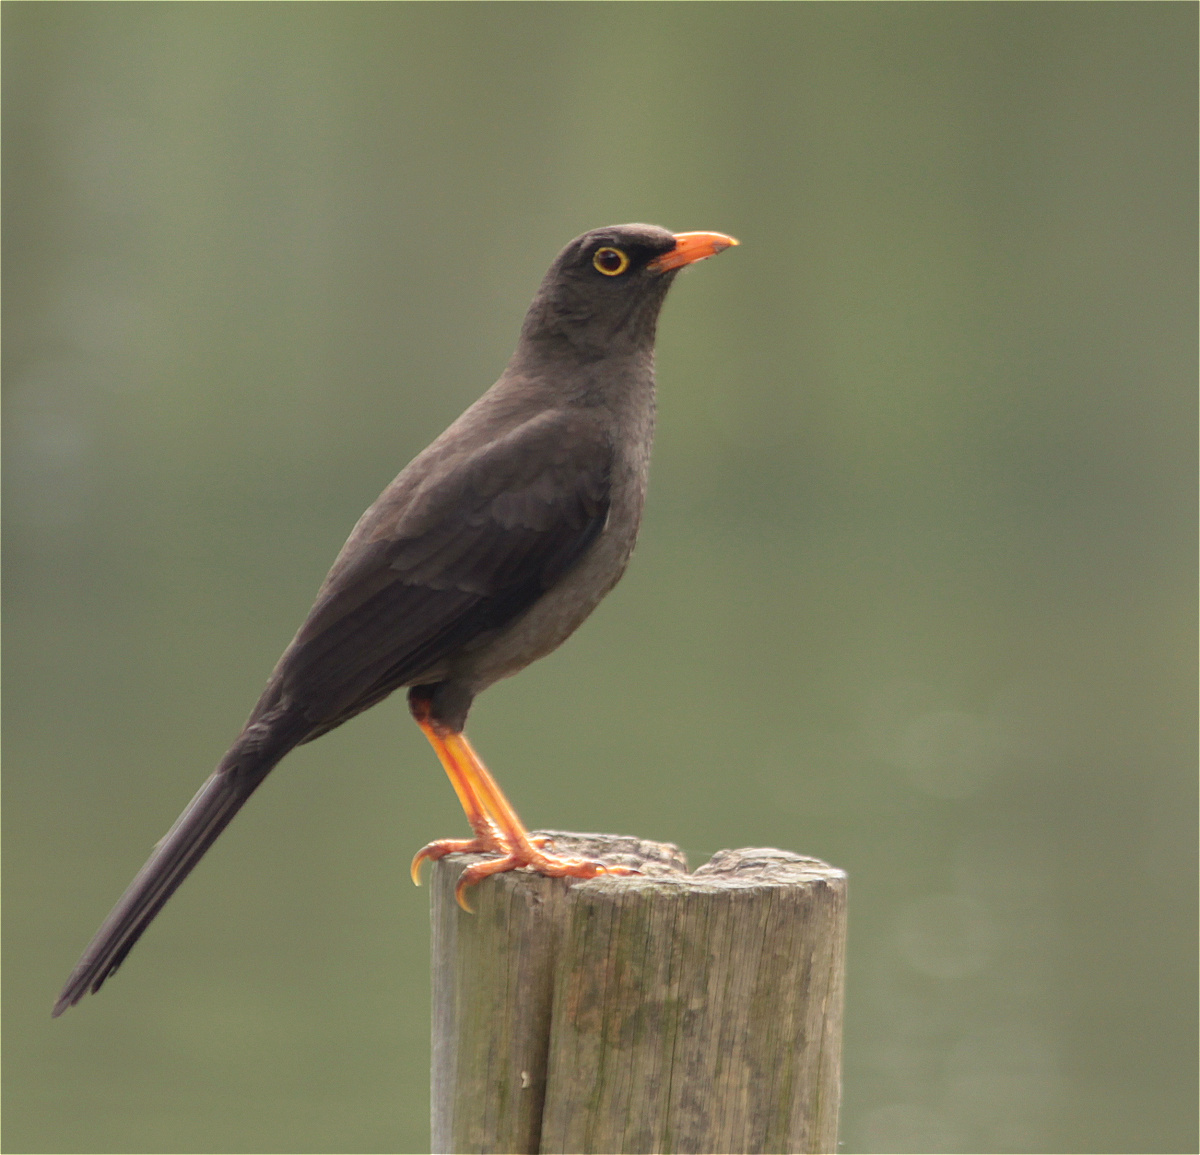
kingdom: Animalia
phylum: Chordata
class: Aves
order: Passeriformes
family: Turdidae
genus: Turdus
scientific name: Turdus fuscater
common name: Great thrush
